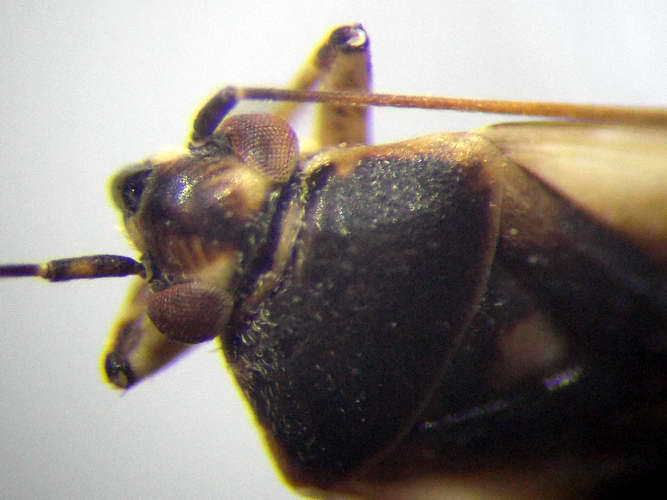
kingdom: Animalia
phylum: Arthropoda
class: Insecta
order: Hemiptera
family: Miridae
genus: Polymerus
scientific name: Polymerus cognatus
